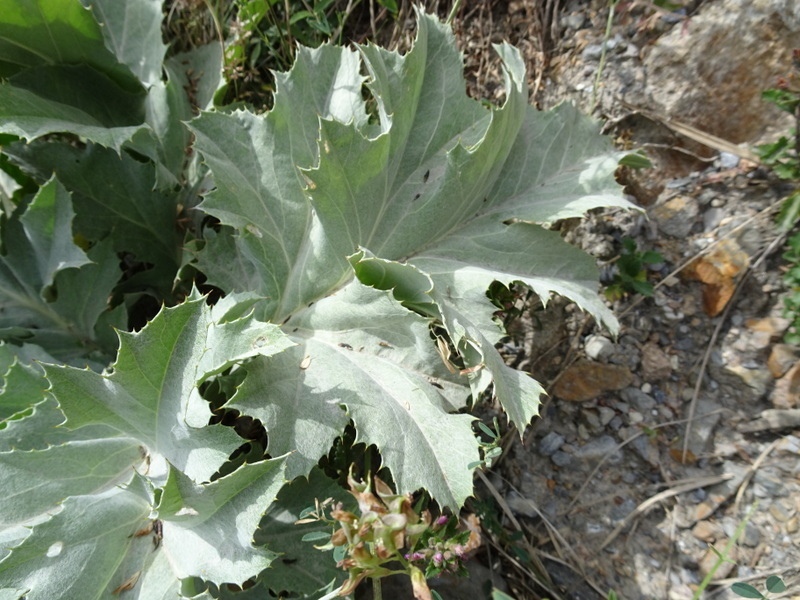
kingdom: Plantae
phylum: Tracheophyta
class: Magnoliopsida
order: Asterales
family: Asteraceae
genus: Carlina
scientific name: Carlina acanthifolia
